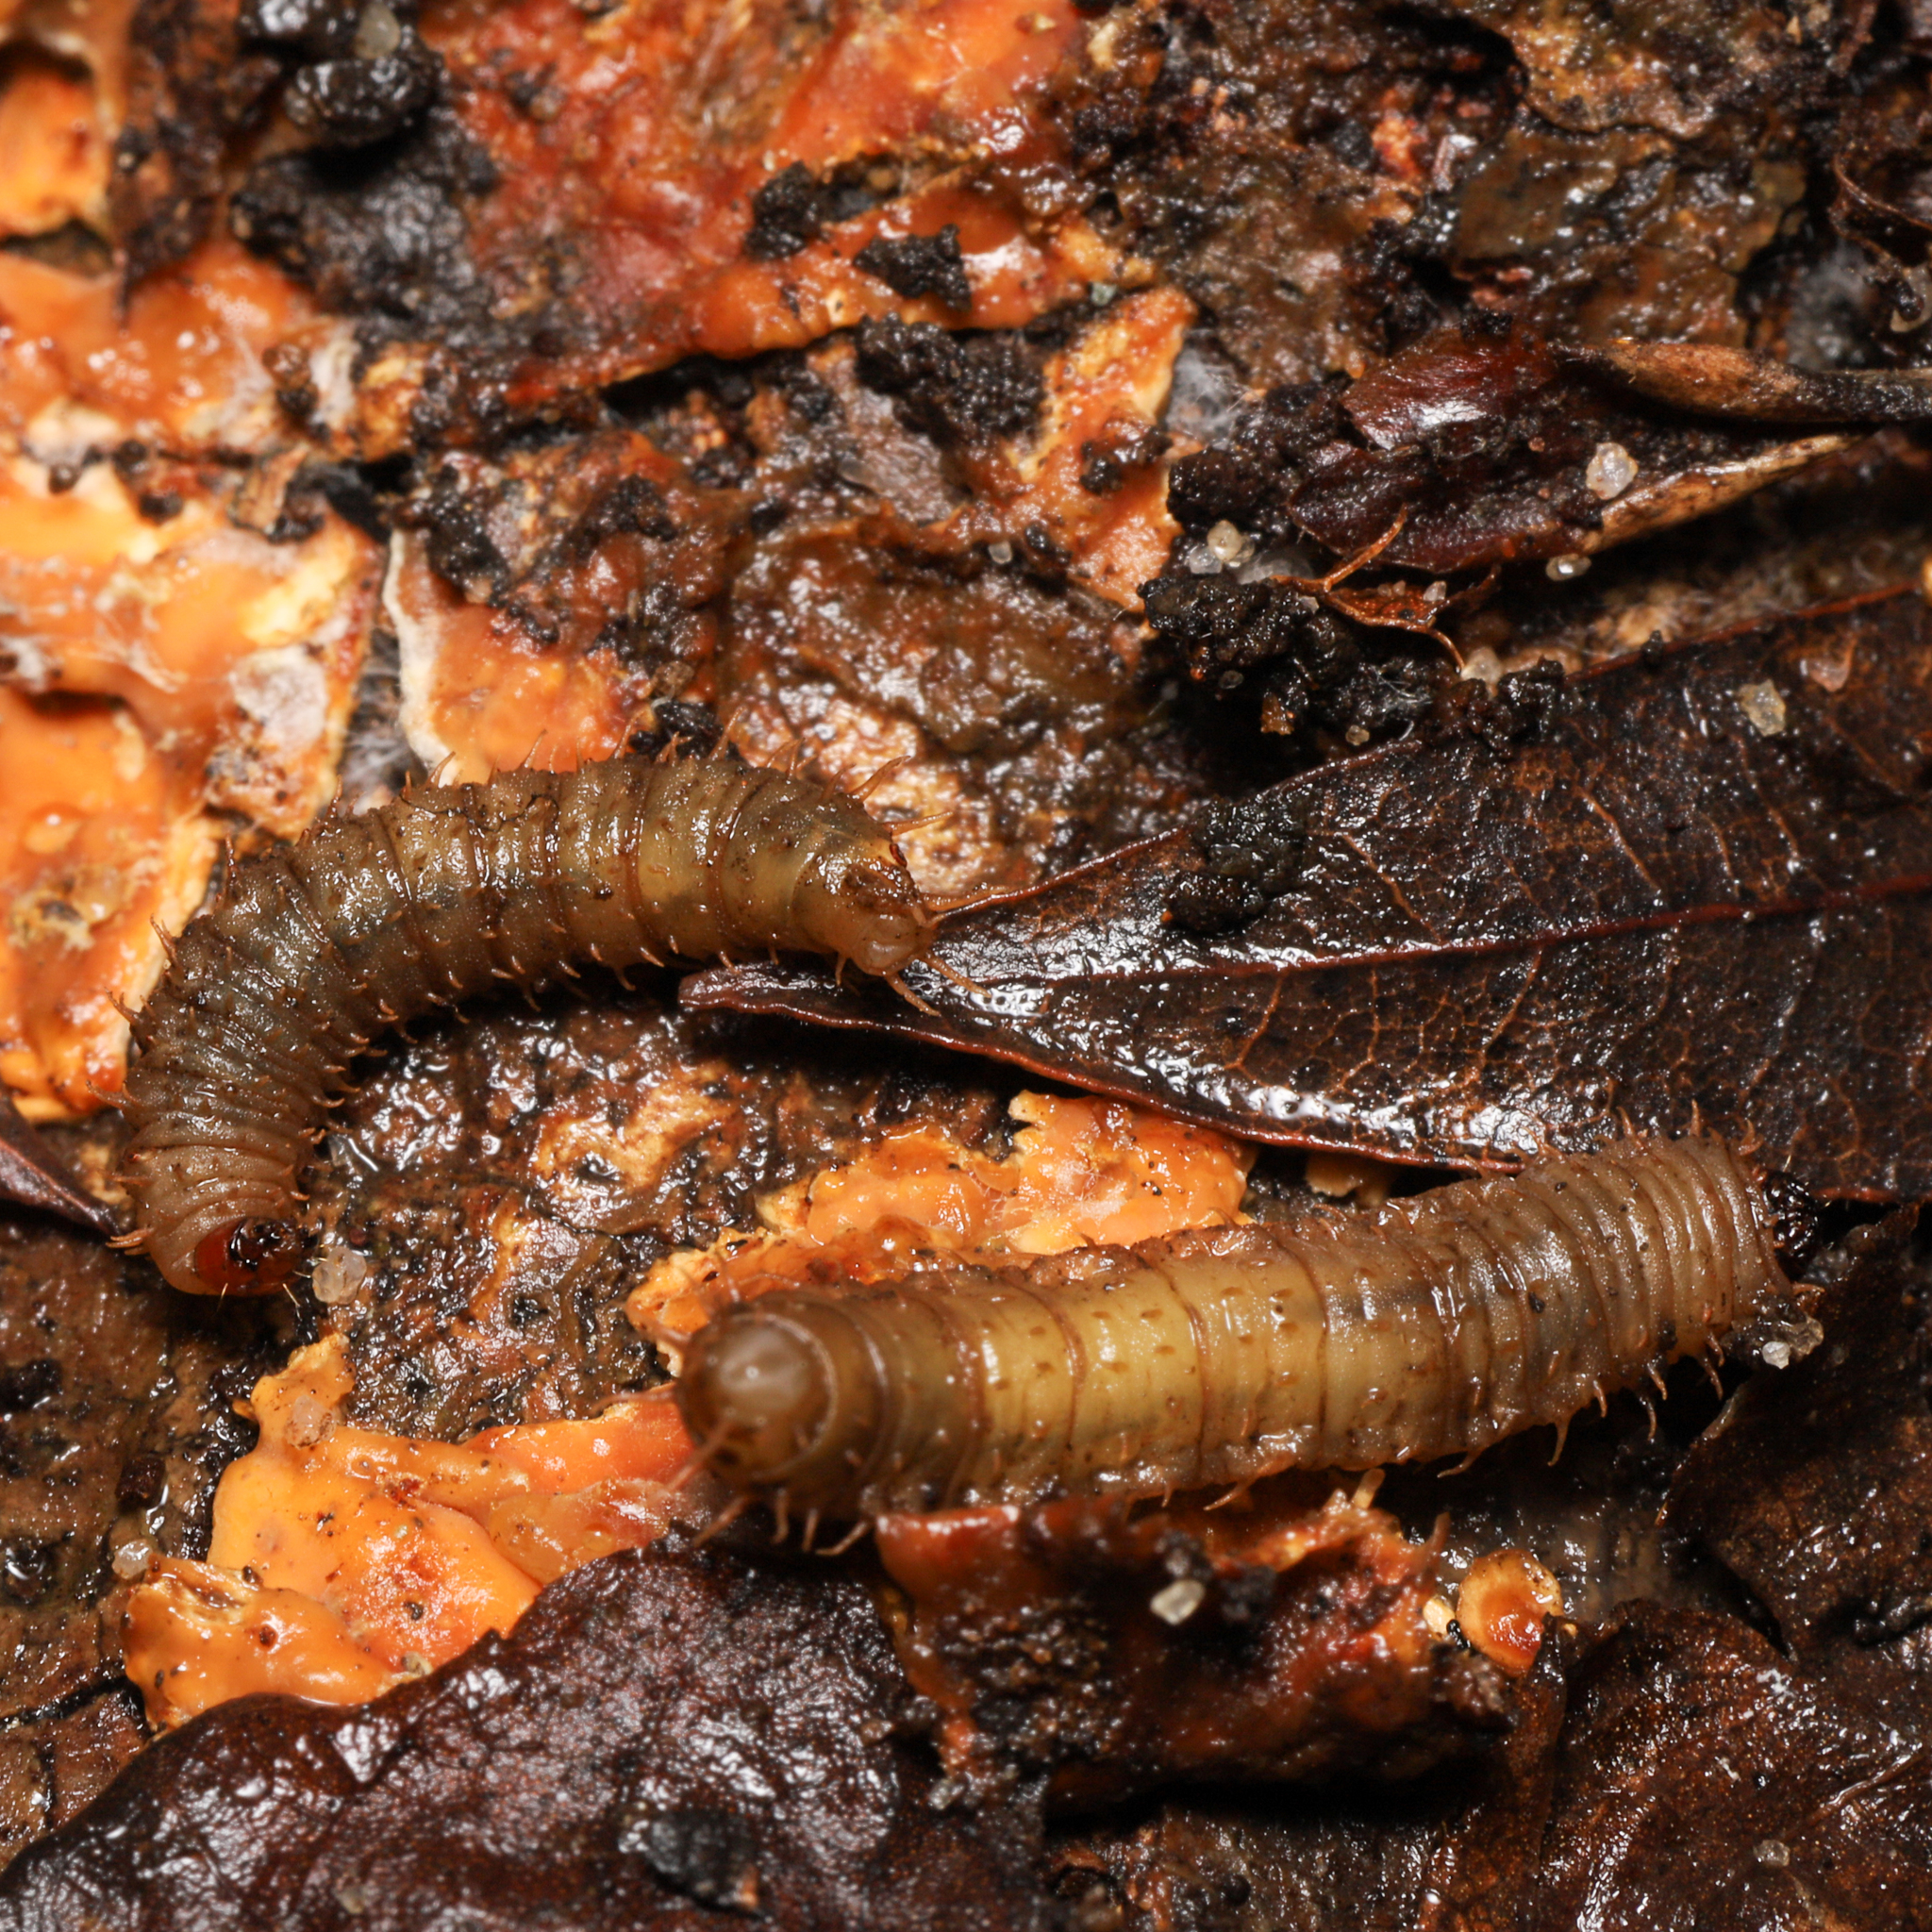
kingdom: Animalia
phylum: Arthropoda
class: Insecta
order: Diptera
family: Bibionidae
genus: Bibio
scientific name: Bibio
